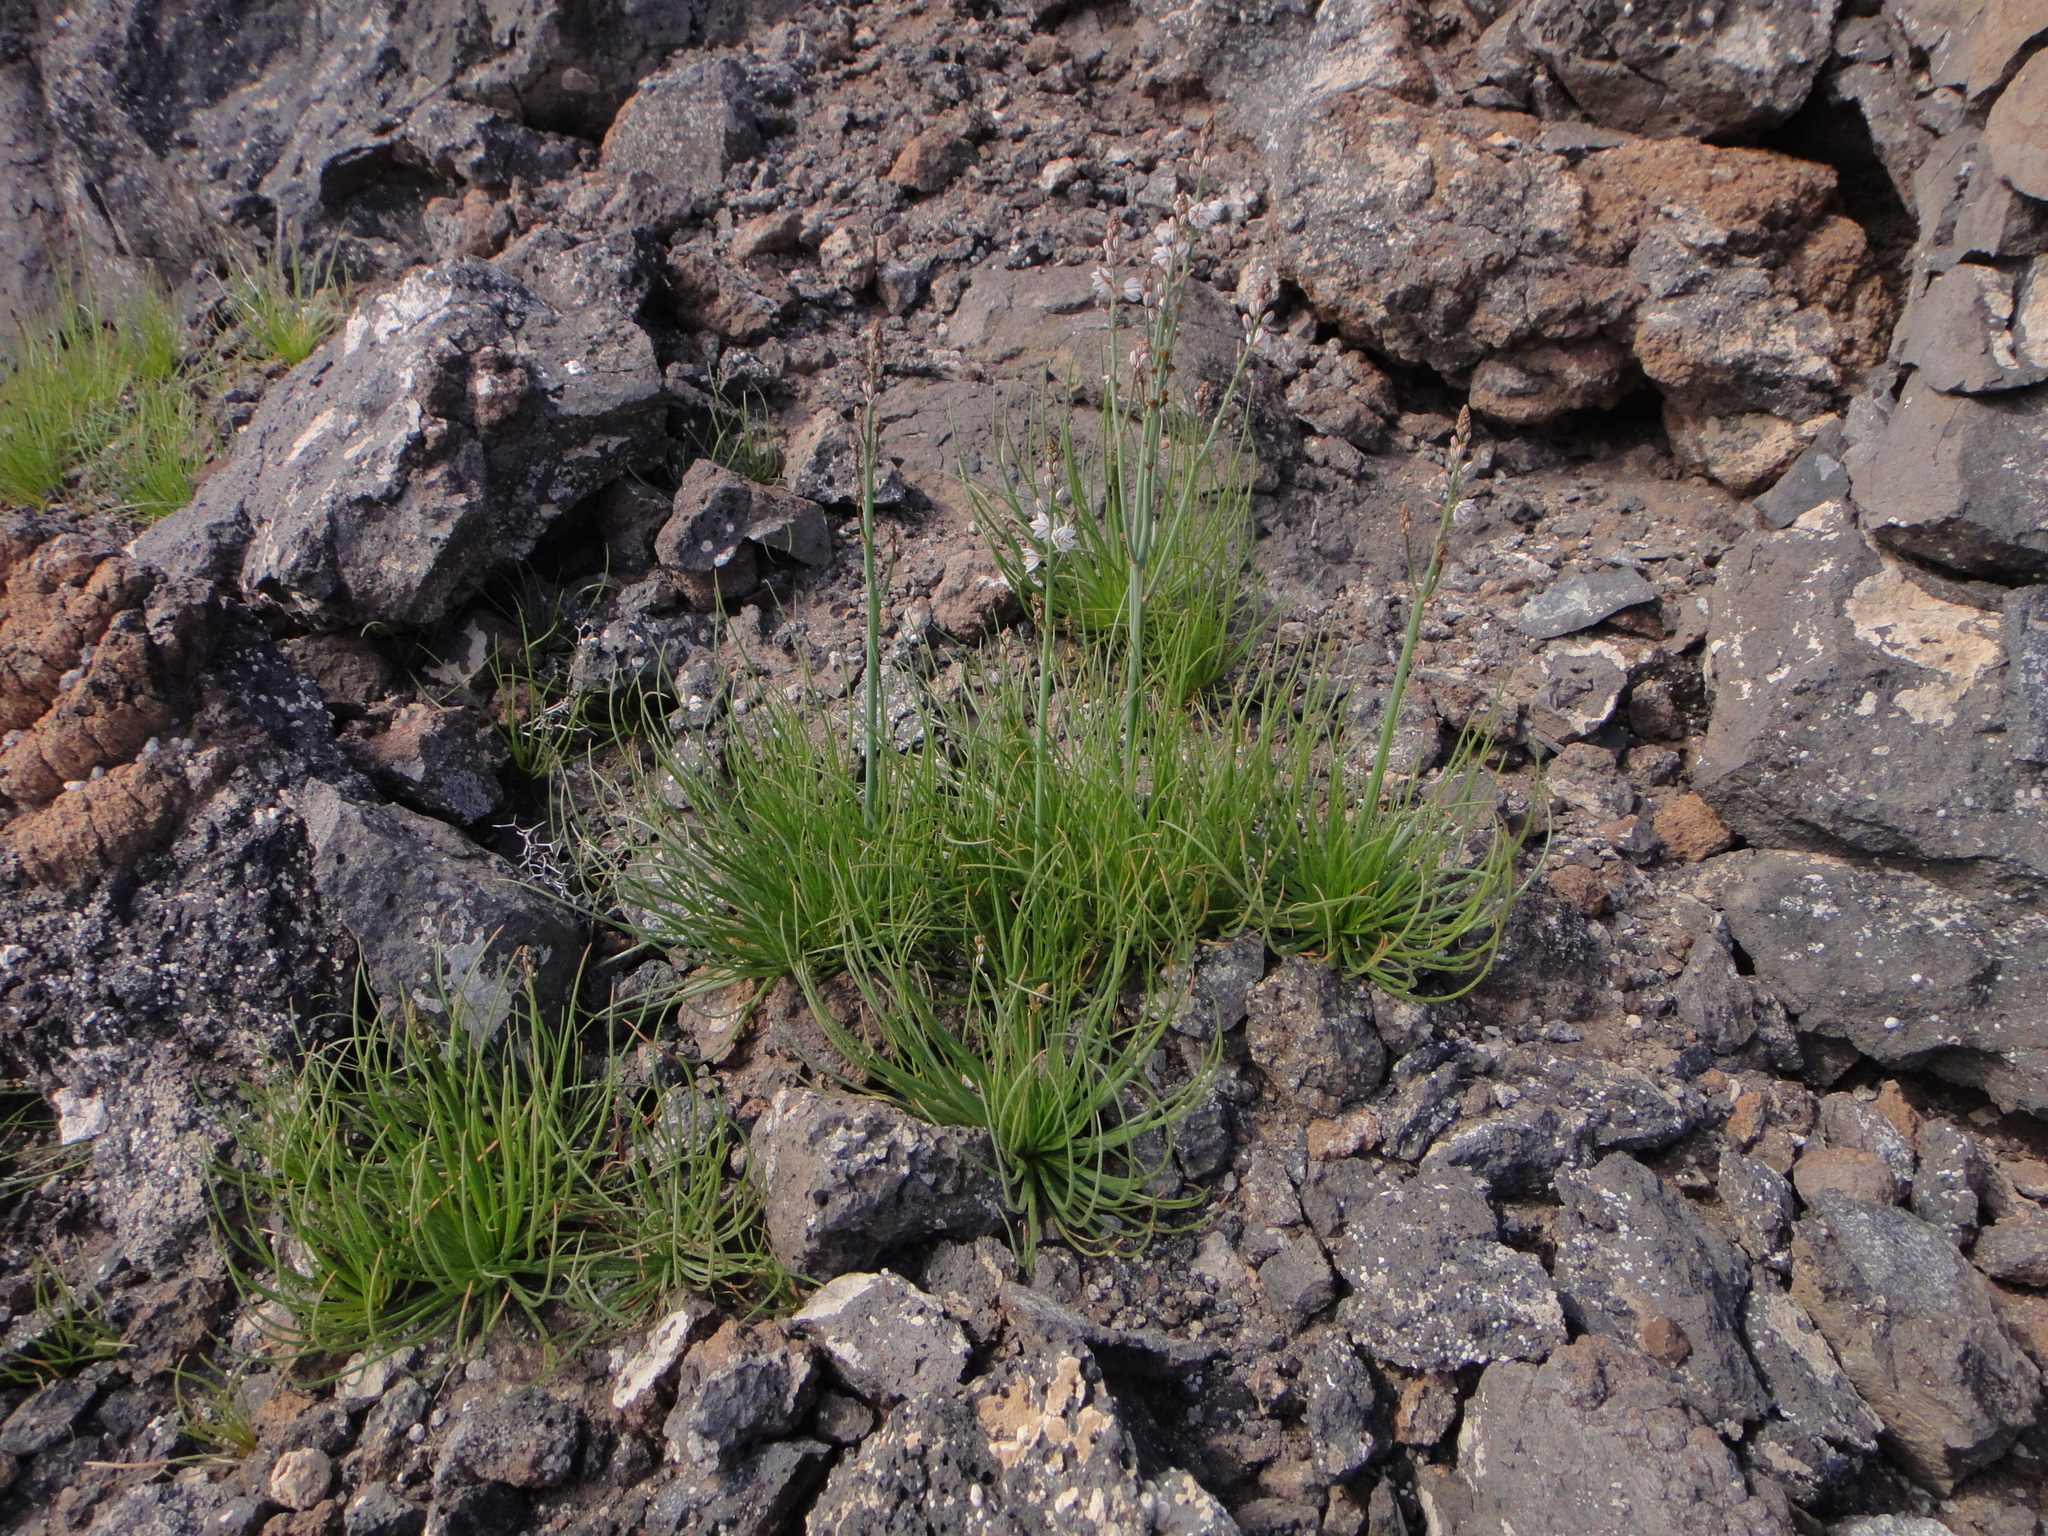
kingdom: Plantae
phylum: Tracheophyta
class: Liliopsida
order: Asparagales
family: Asphodelaceae
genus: Asphodelus
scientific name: Asphodelus fistulosus
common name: Onionweed
